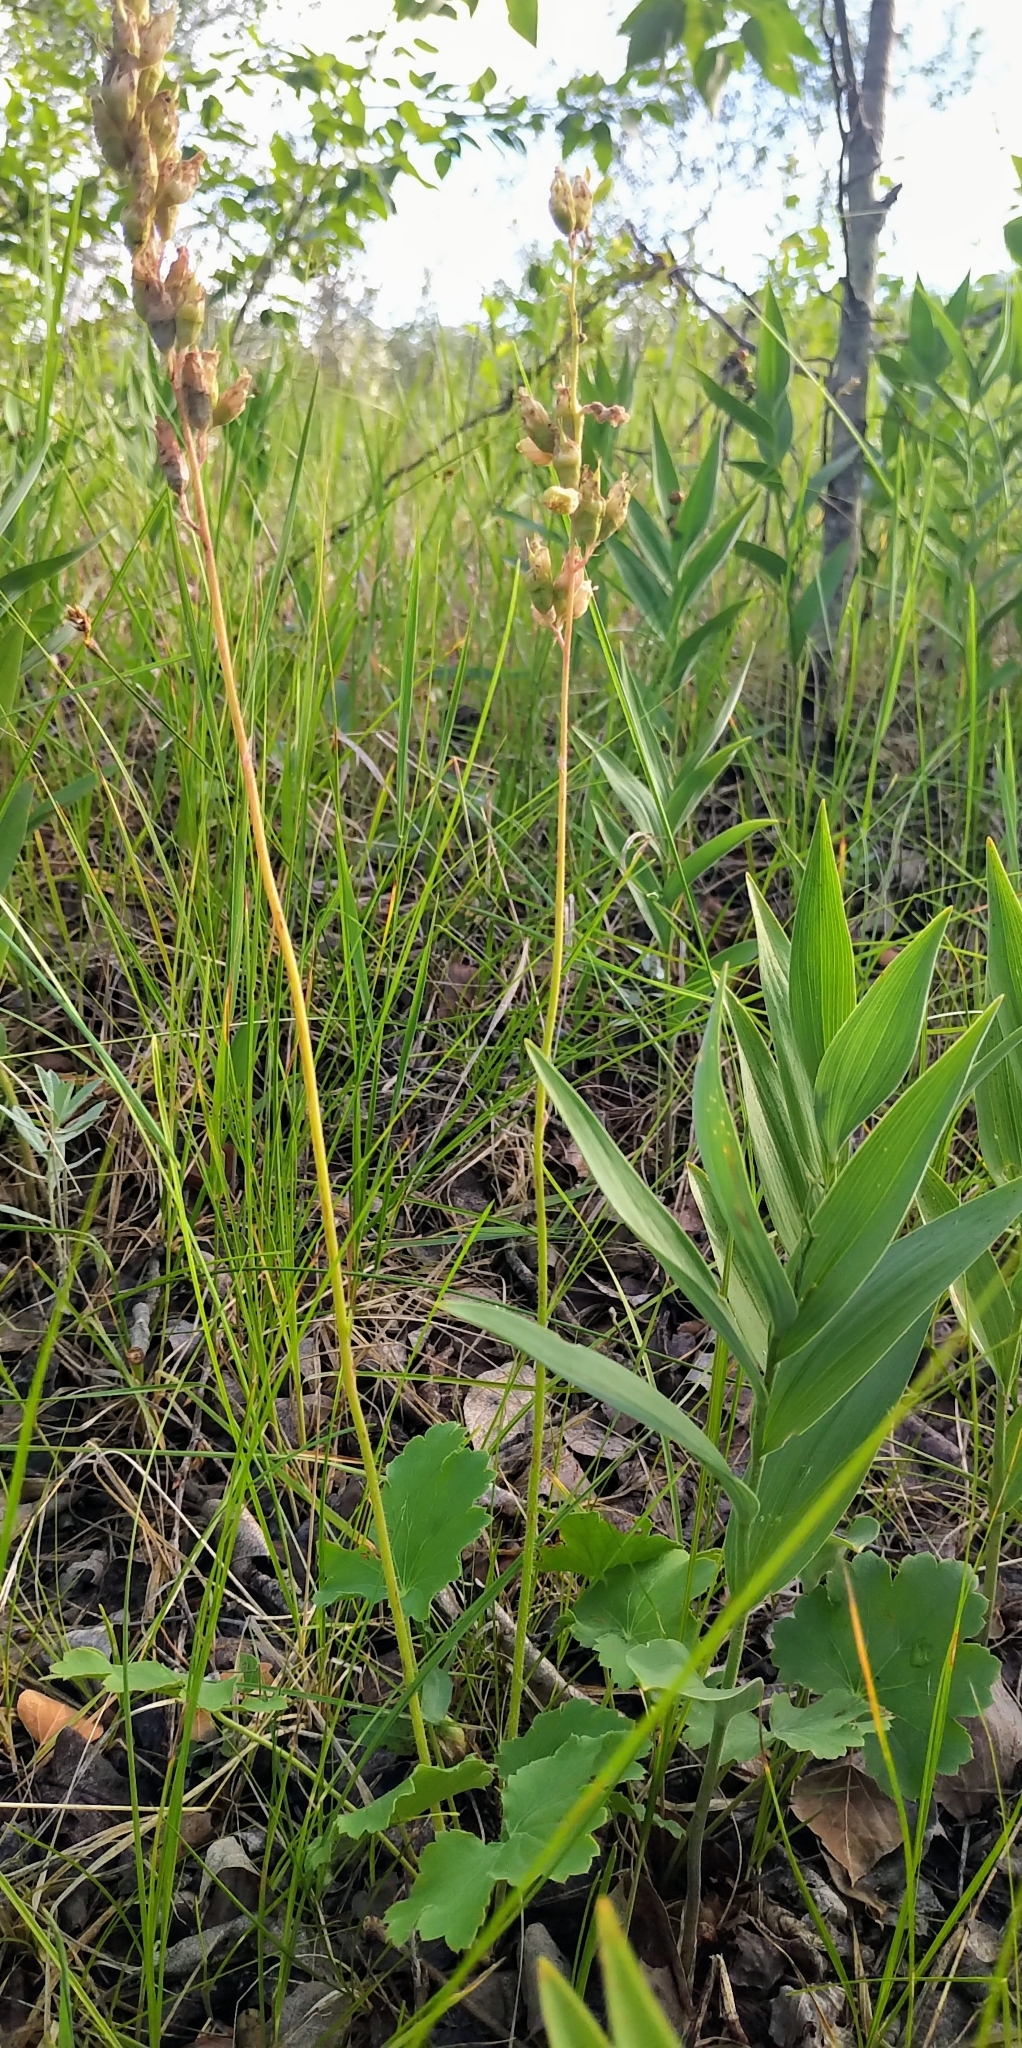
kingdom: Plantae
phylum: Tracheophyta
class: Magnoliopsida
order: Saxifragales
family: Saxifragaceae
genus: Heuchera
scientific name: Heuchera richardsonii
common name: Richardson's alumroot
